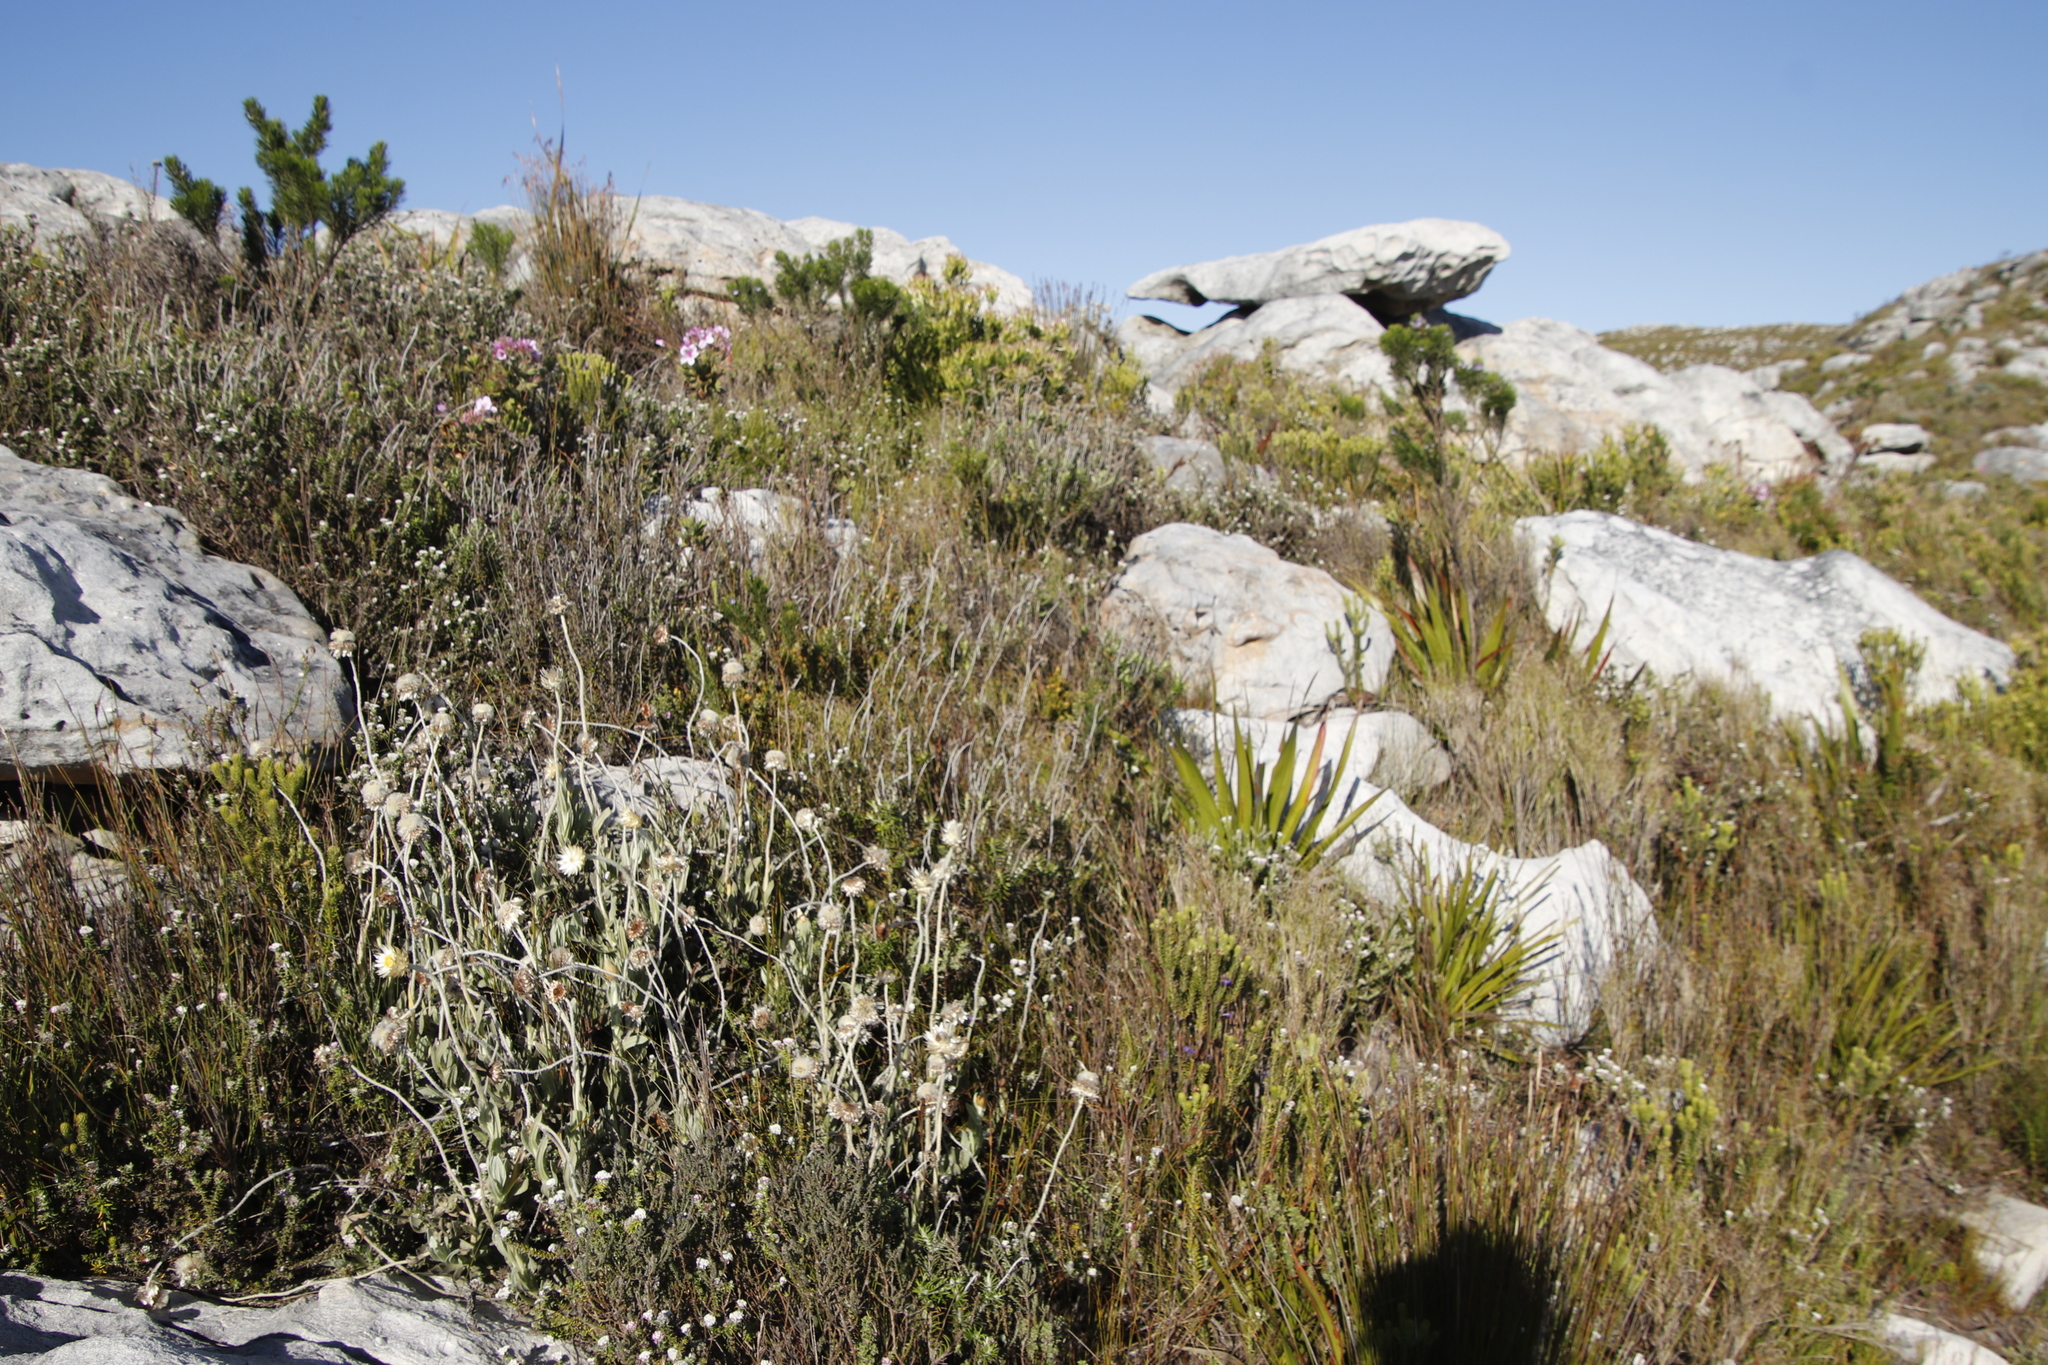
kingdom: Plantae
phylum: Tracheophyta
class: Magnoliopsida
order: Asterales
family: Asteraceae
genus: Syncarpha
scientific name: Syncarpha speciosissima
